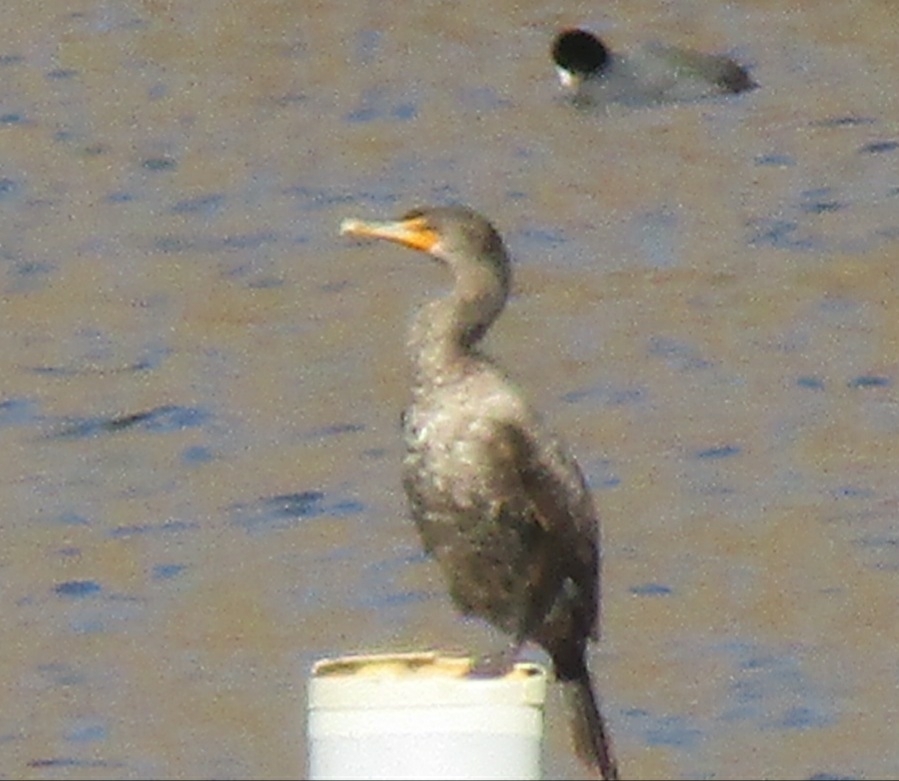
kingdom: Animalia
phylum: Chordata
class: Aves
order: Suliformes
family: Phalacrocoracidae
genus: Phalacrocorax
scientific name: Phalacrocorax auritus
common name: Double-crested cormorant
